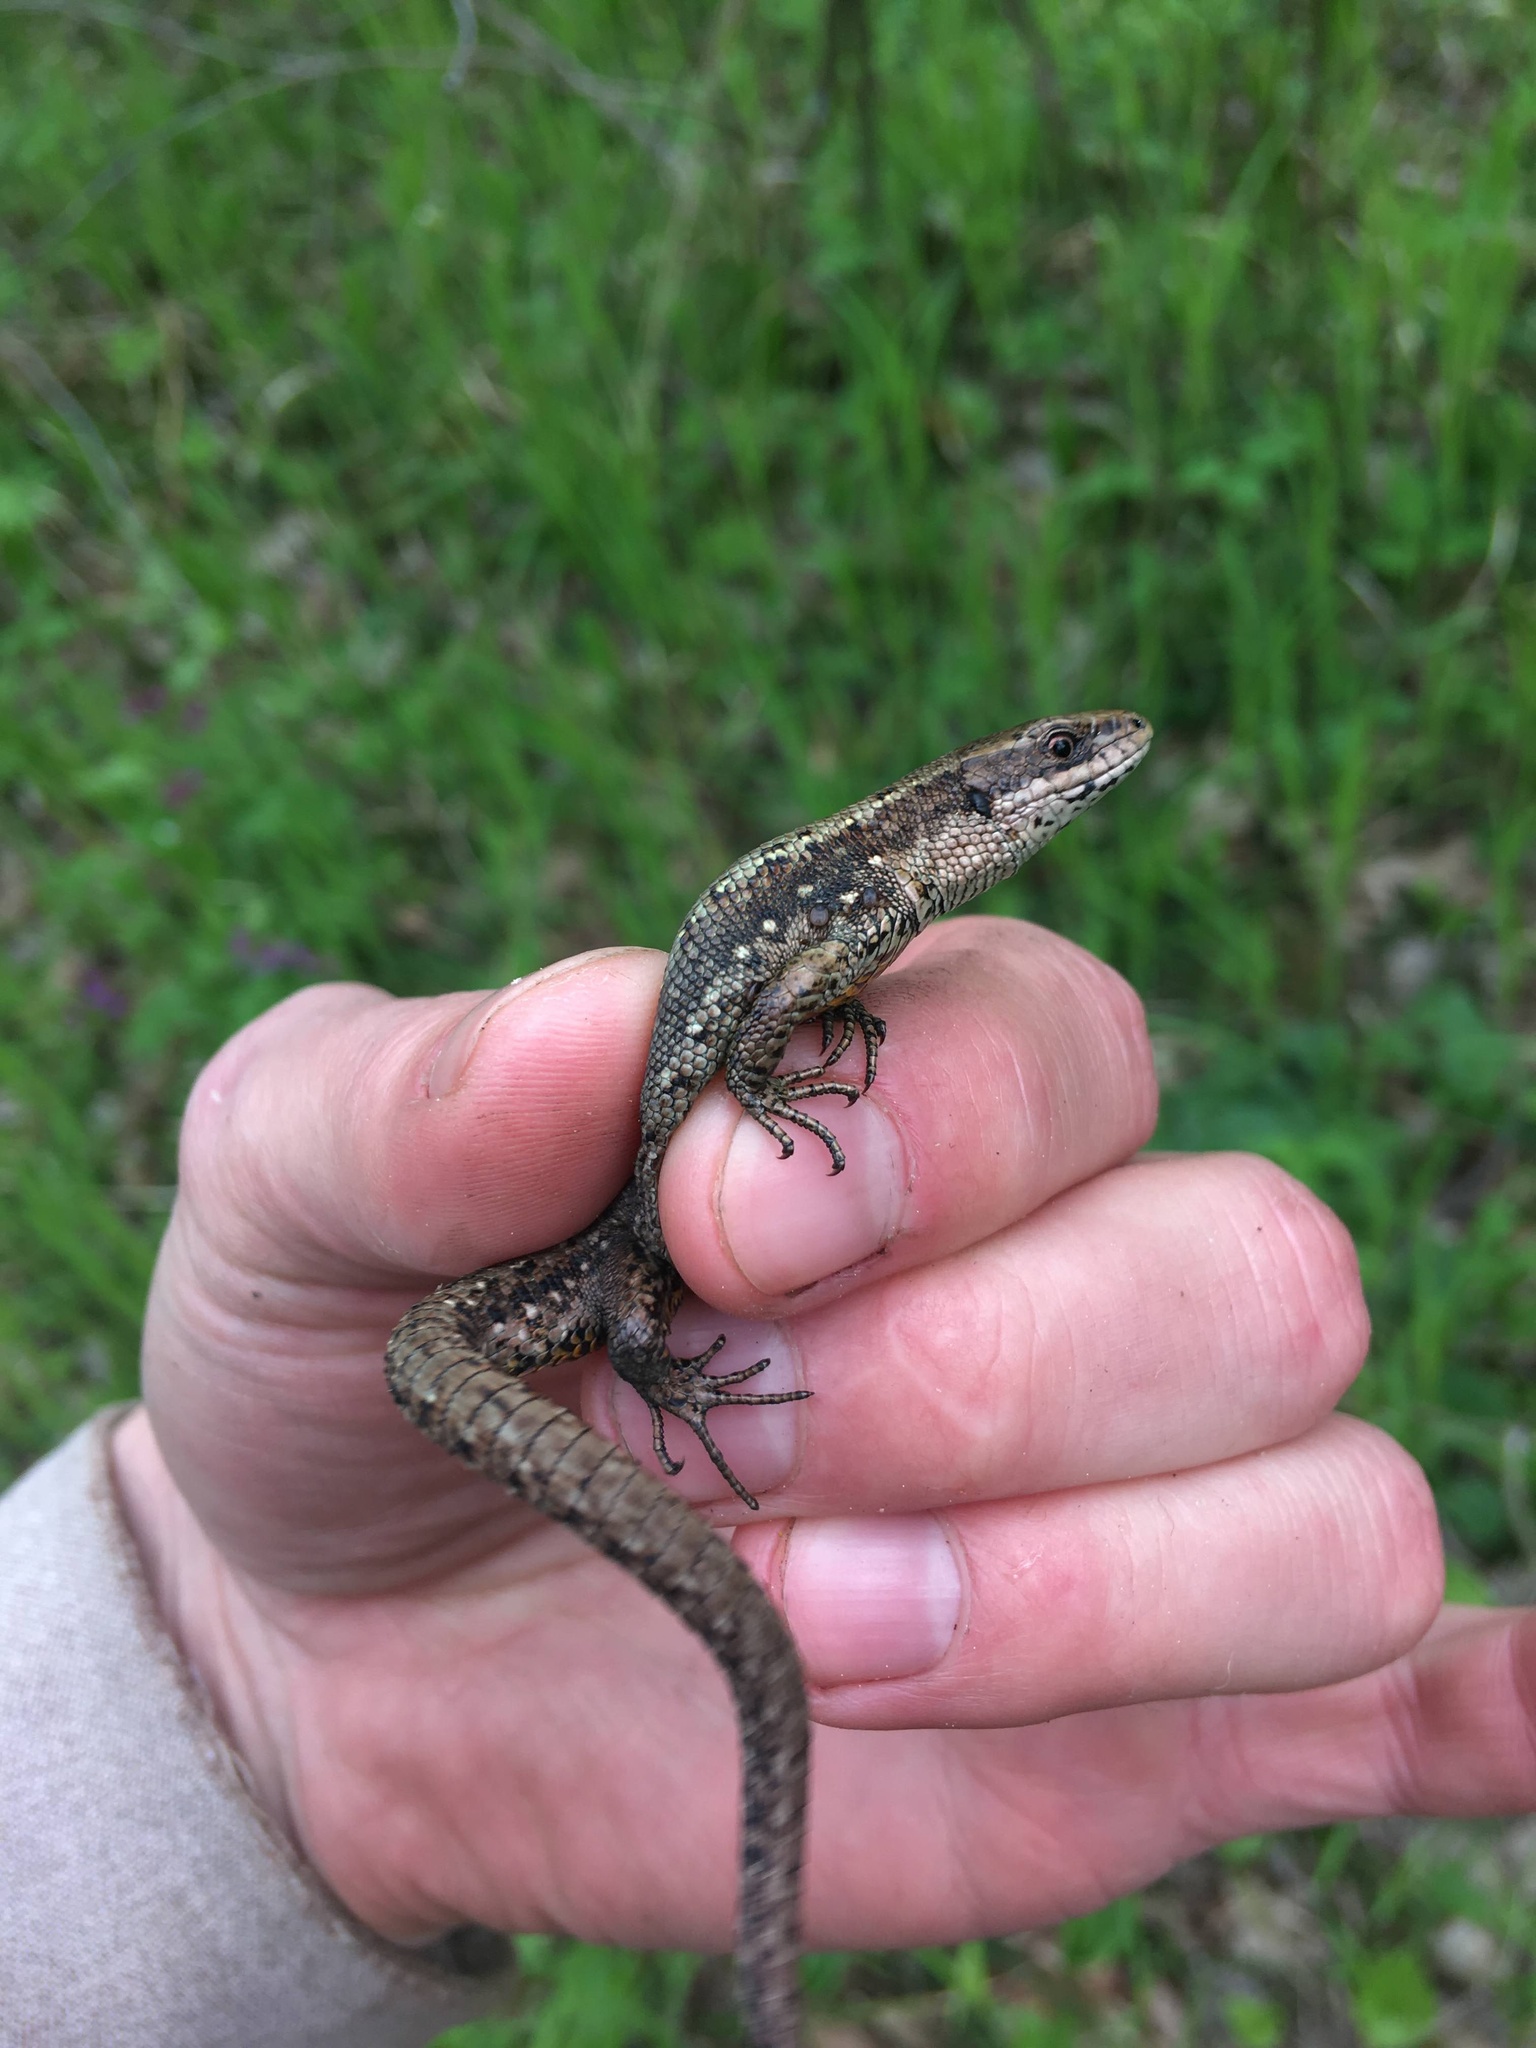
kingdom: Animalia
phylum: Chordata
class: Squamata
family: Lacertidae
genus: Zootoca
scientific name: Zootoca vivipara
